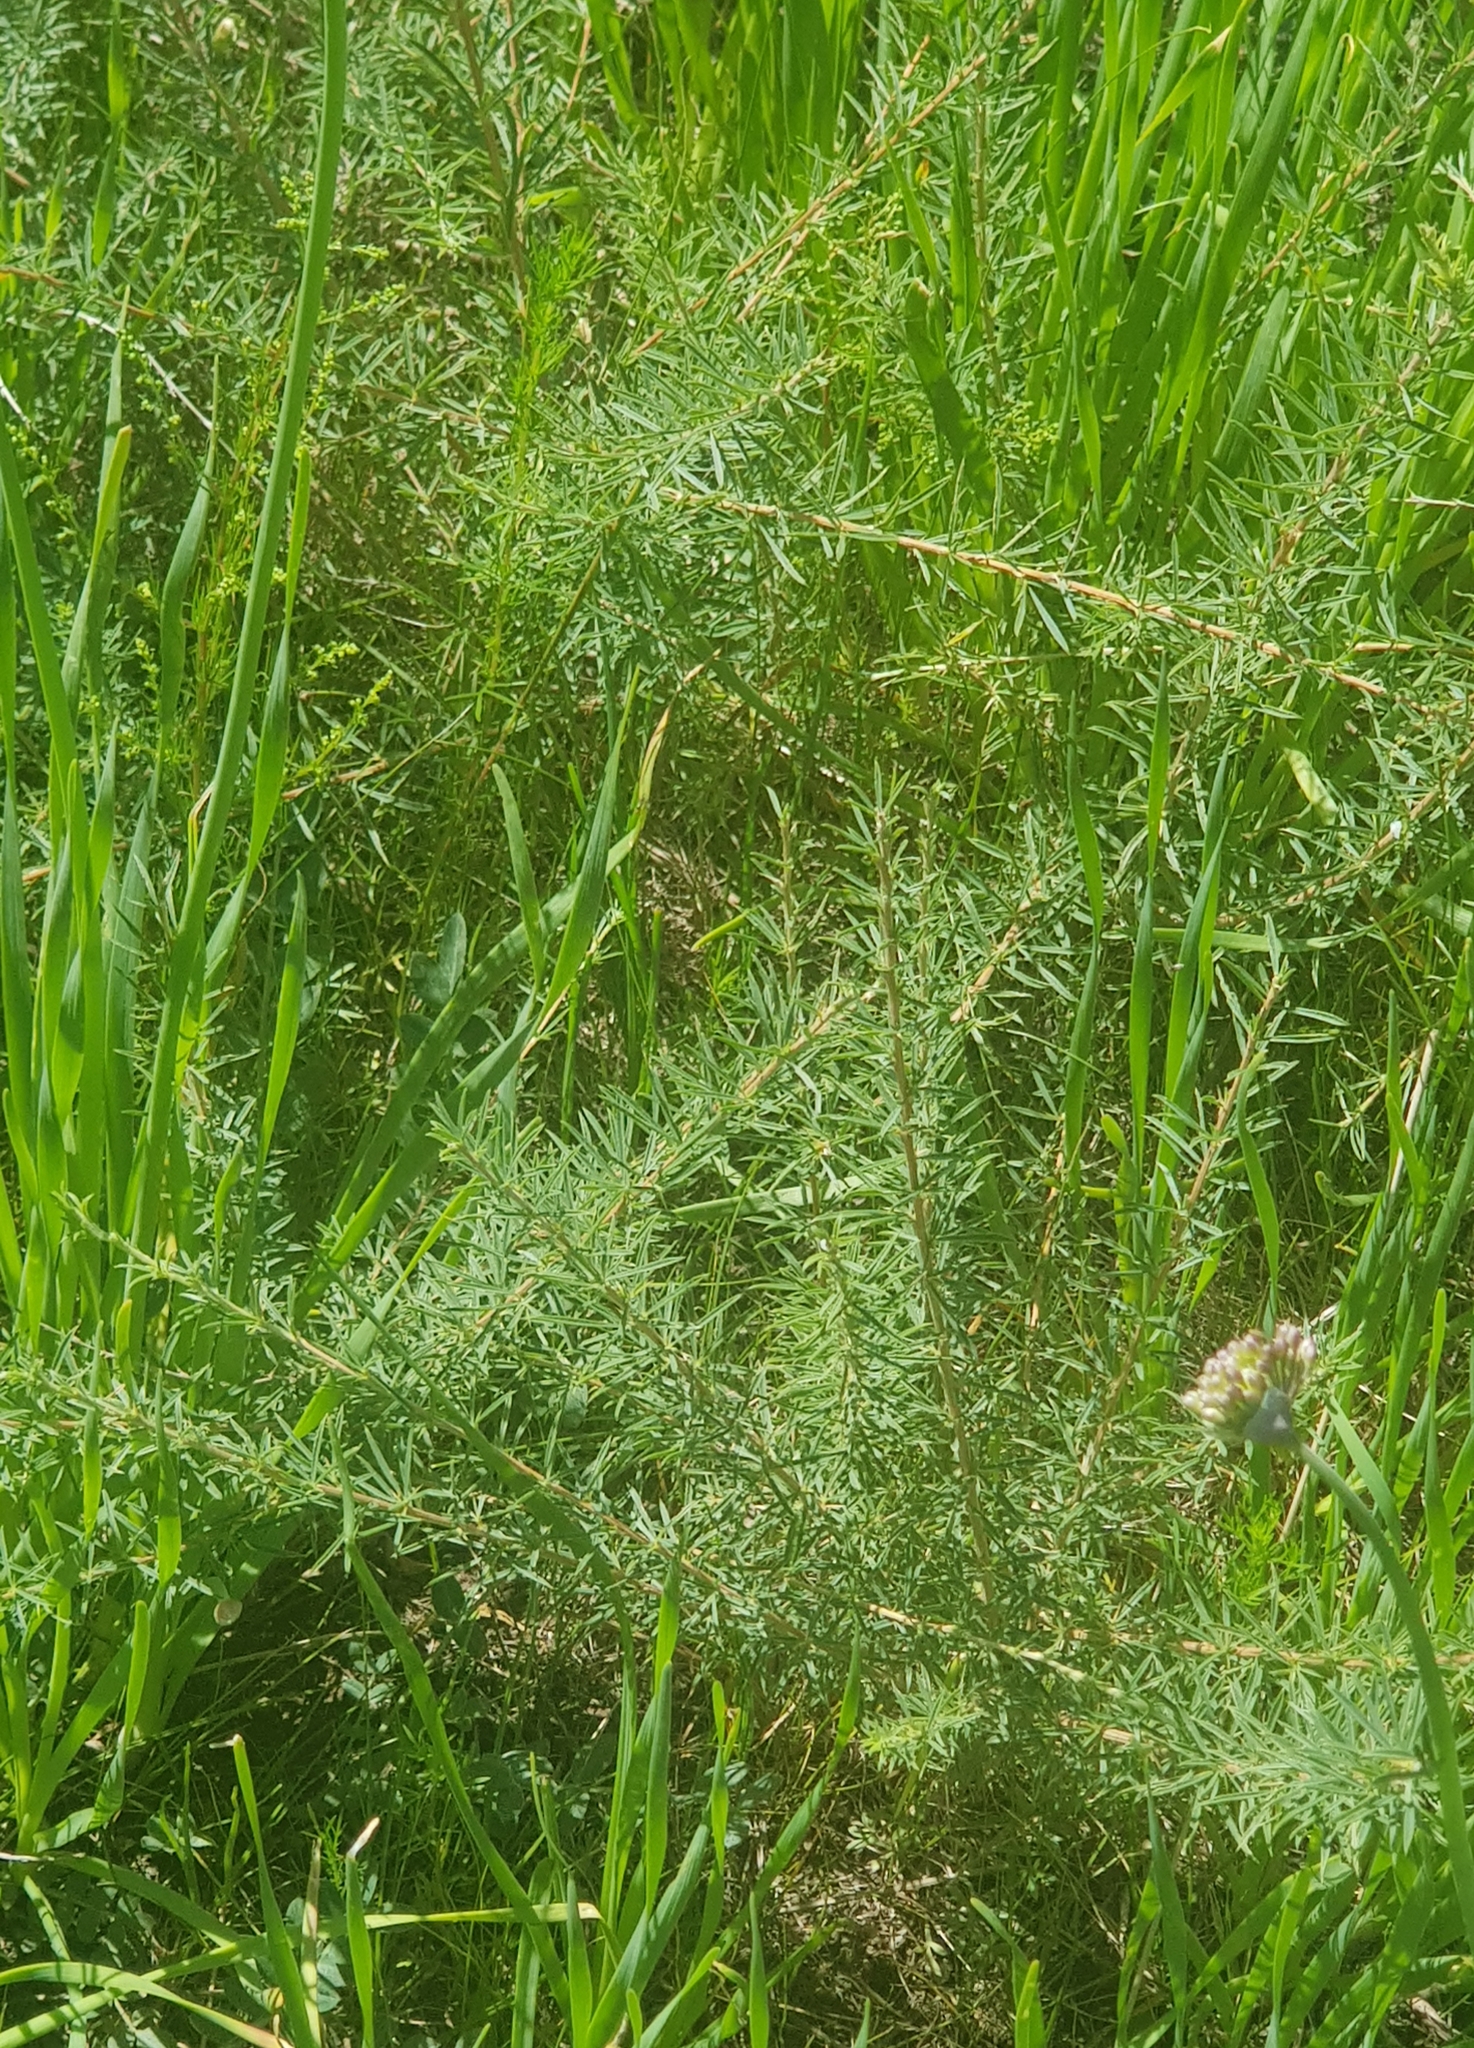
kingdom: Plantae
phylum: Tracheophyta
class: Magnoliopsida
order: Fabales
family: Fabaceae
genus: Caragana
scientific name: Caragana stenophylla
